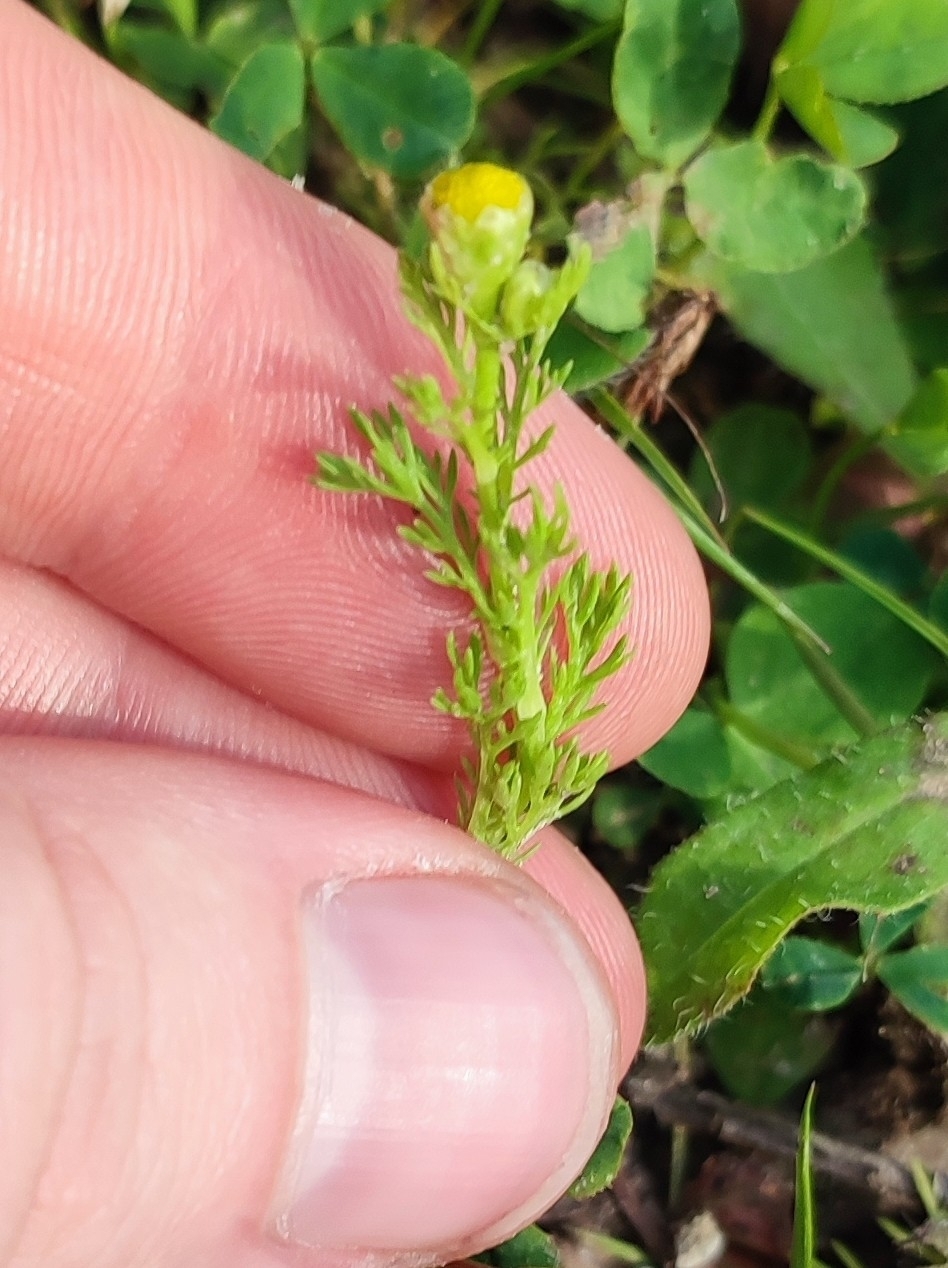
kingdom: Plantae
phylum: Tracheophyta
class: Magnoliopsida
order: Asterales
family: Asteraceae
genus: Matricaria
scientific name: Matricaria discoidea
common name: Disc mayweed
